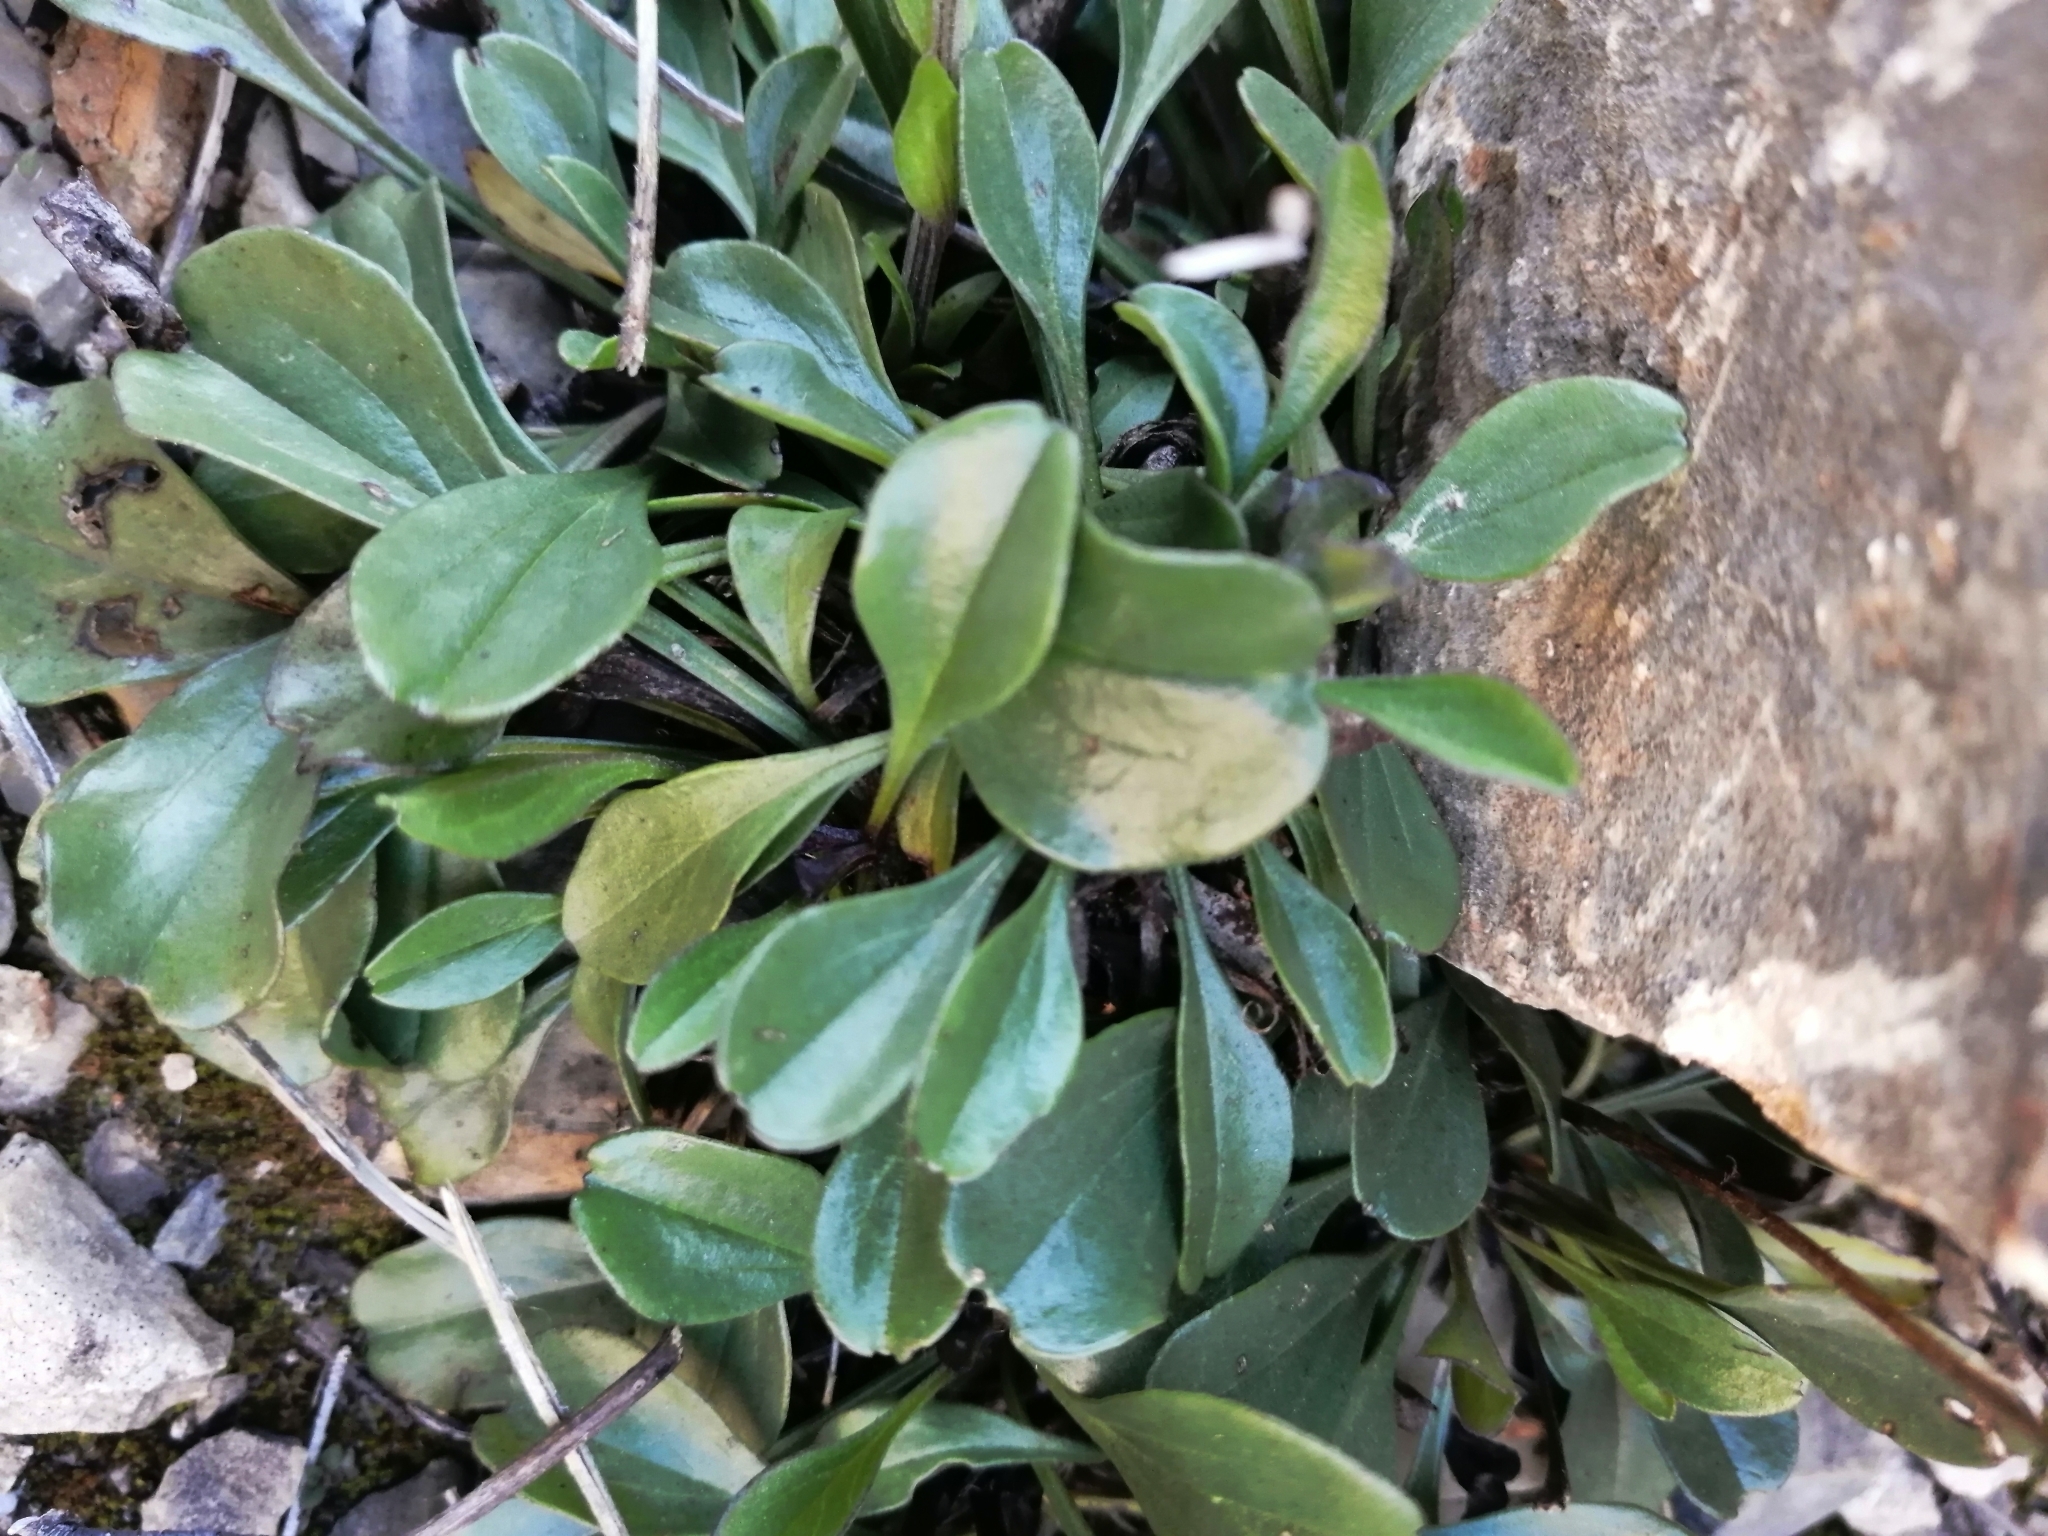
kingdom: Plantae
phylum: Tracheophyta
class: Magnoliopsida
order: Lamiales
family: Plantaginaceae
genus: Globularia
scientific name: Globularia bisnagarica
